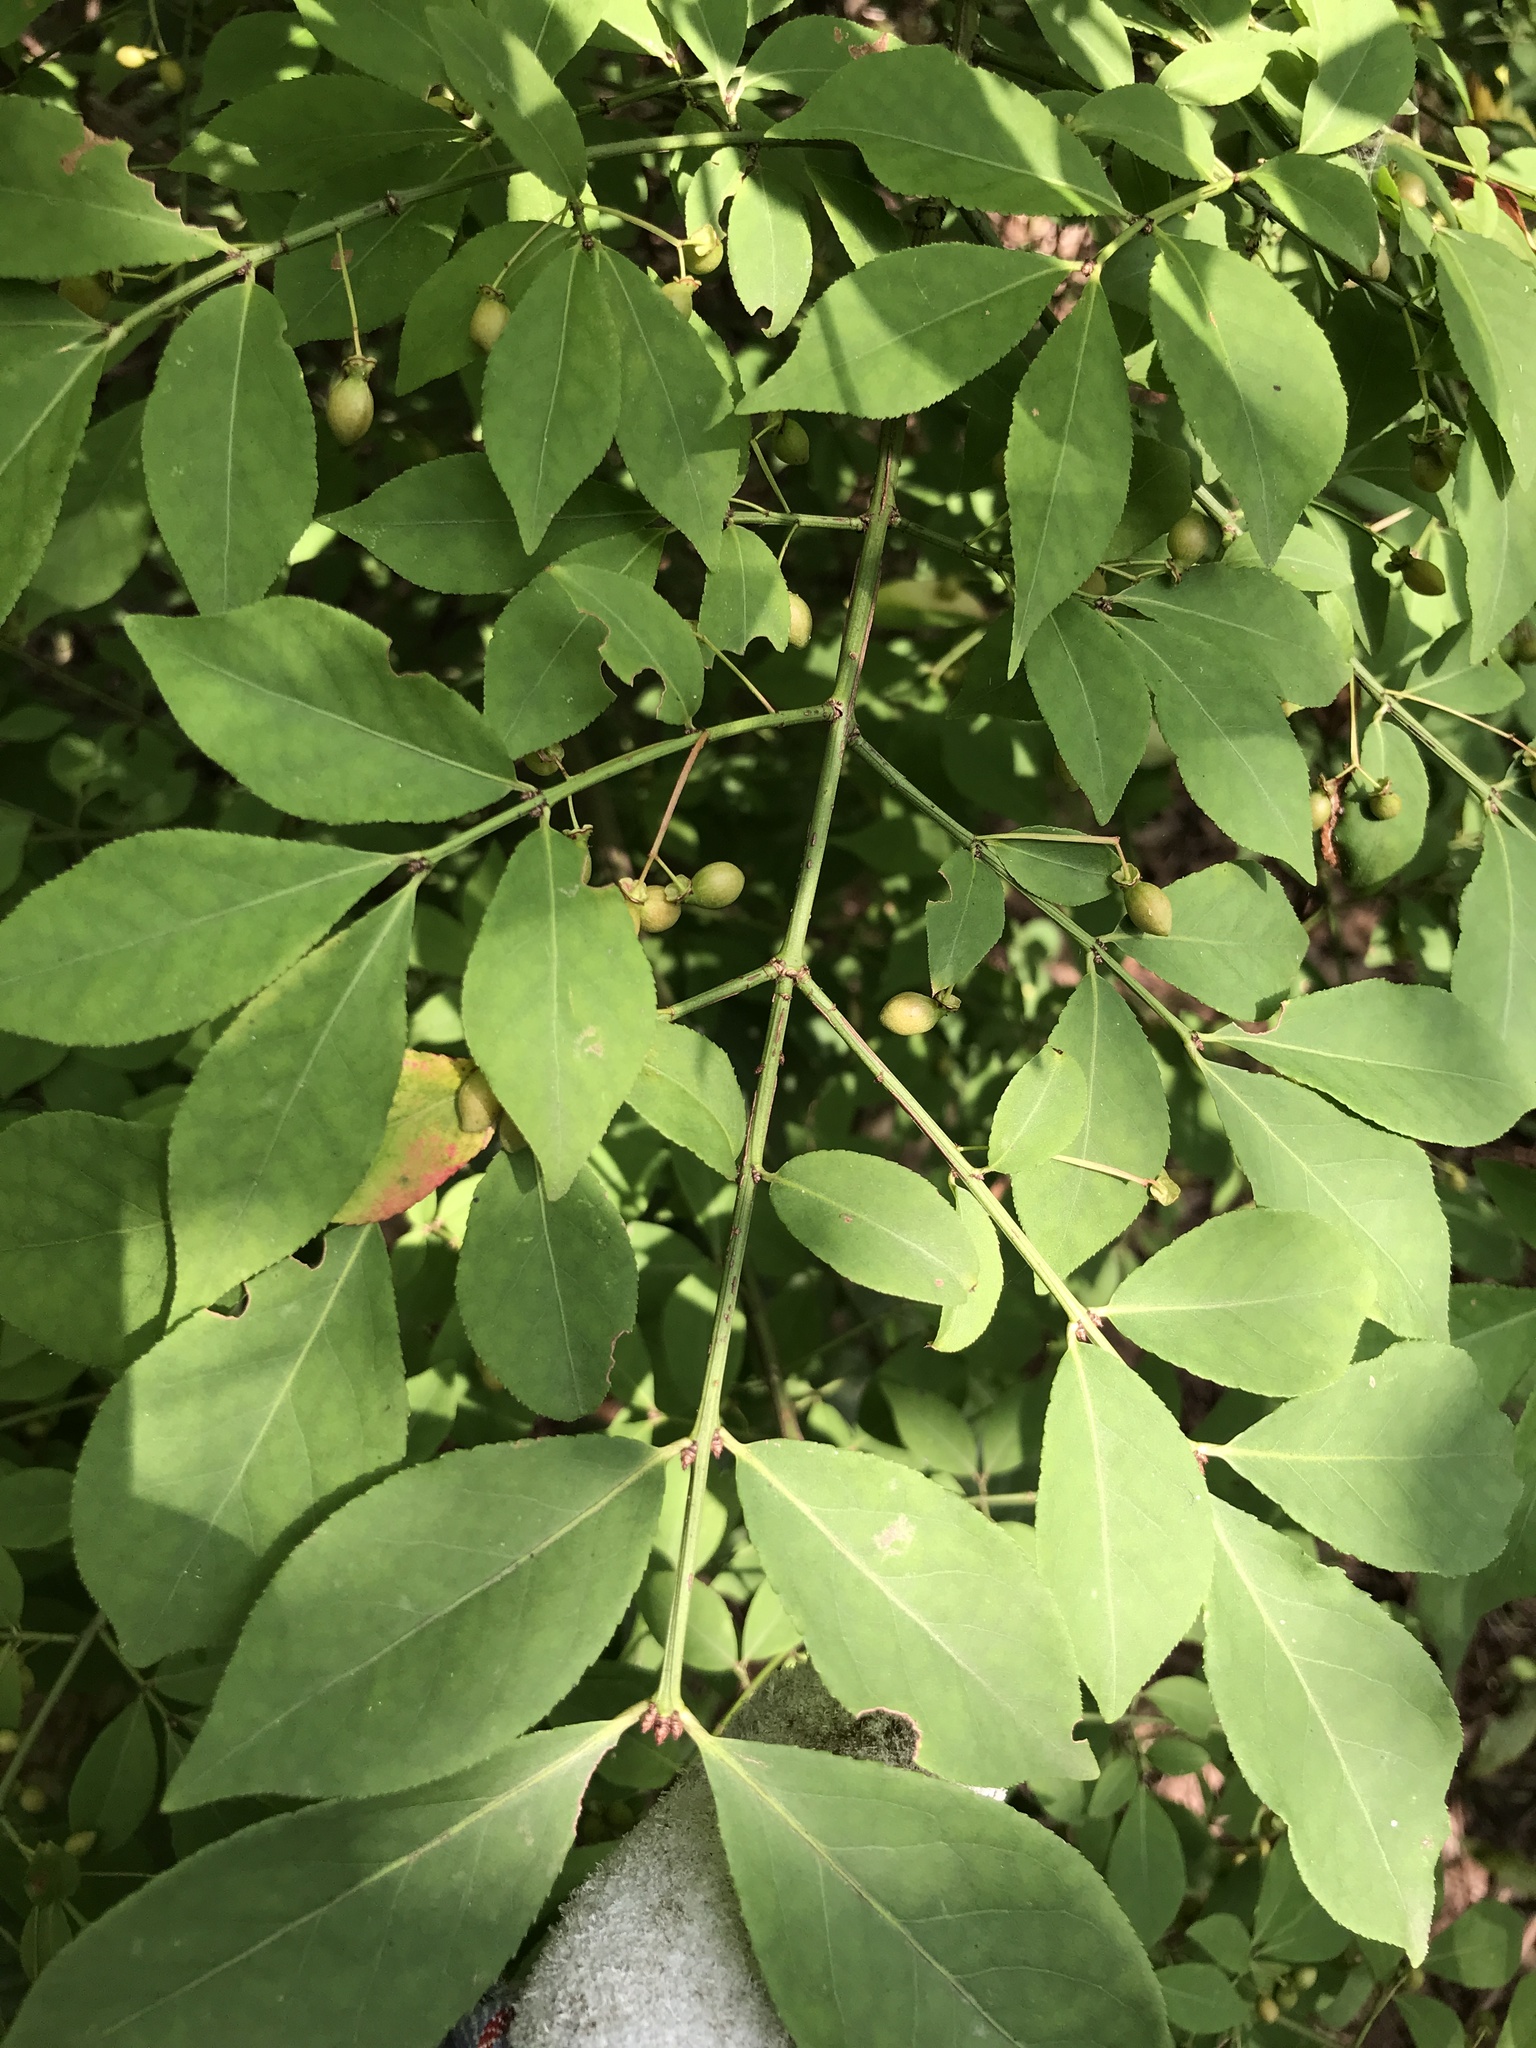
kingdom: Plantae
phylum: Tracheophyta
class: Magnoliopsida
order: Celastrales
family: Celastraceae
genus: Euonymus
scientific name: Euonymus alatus
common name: Winged euonymus
